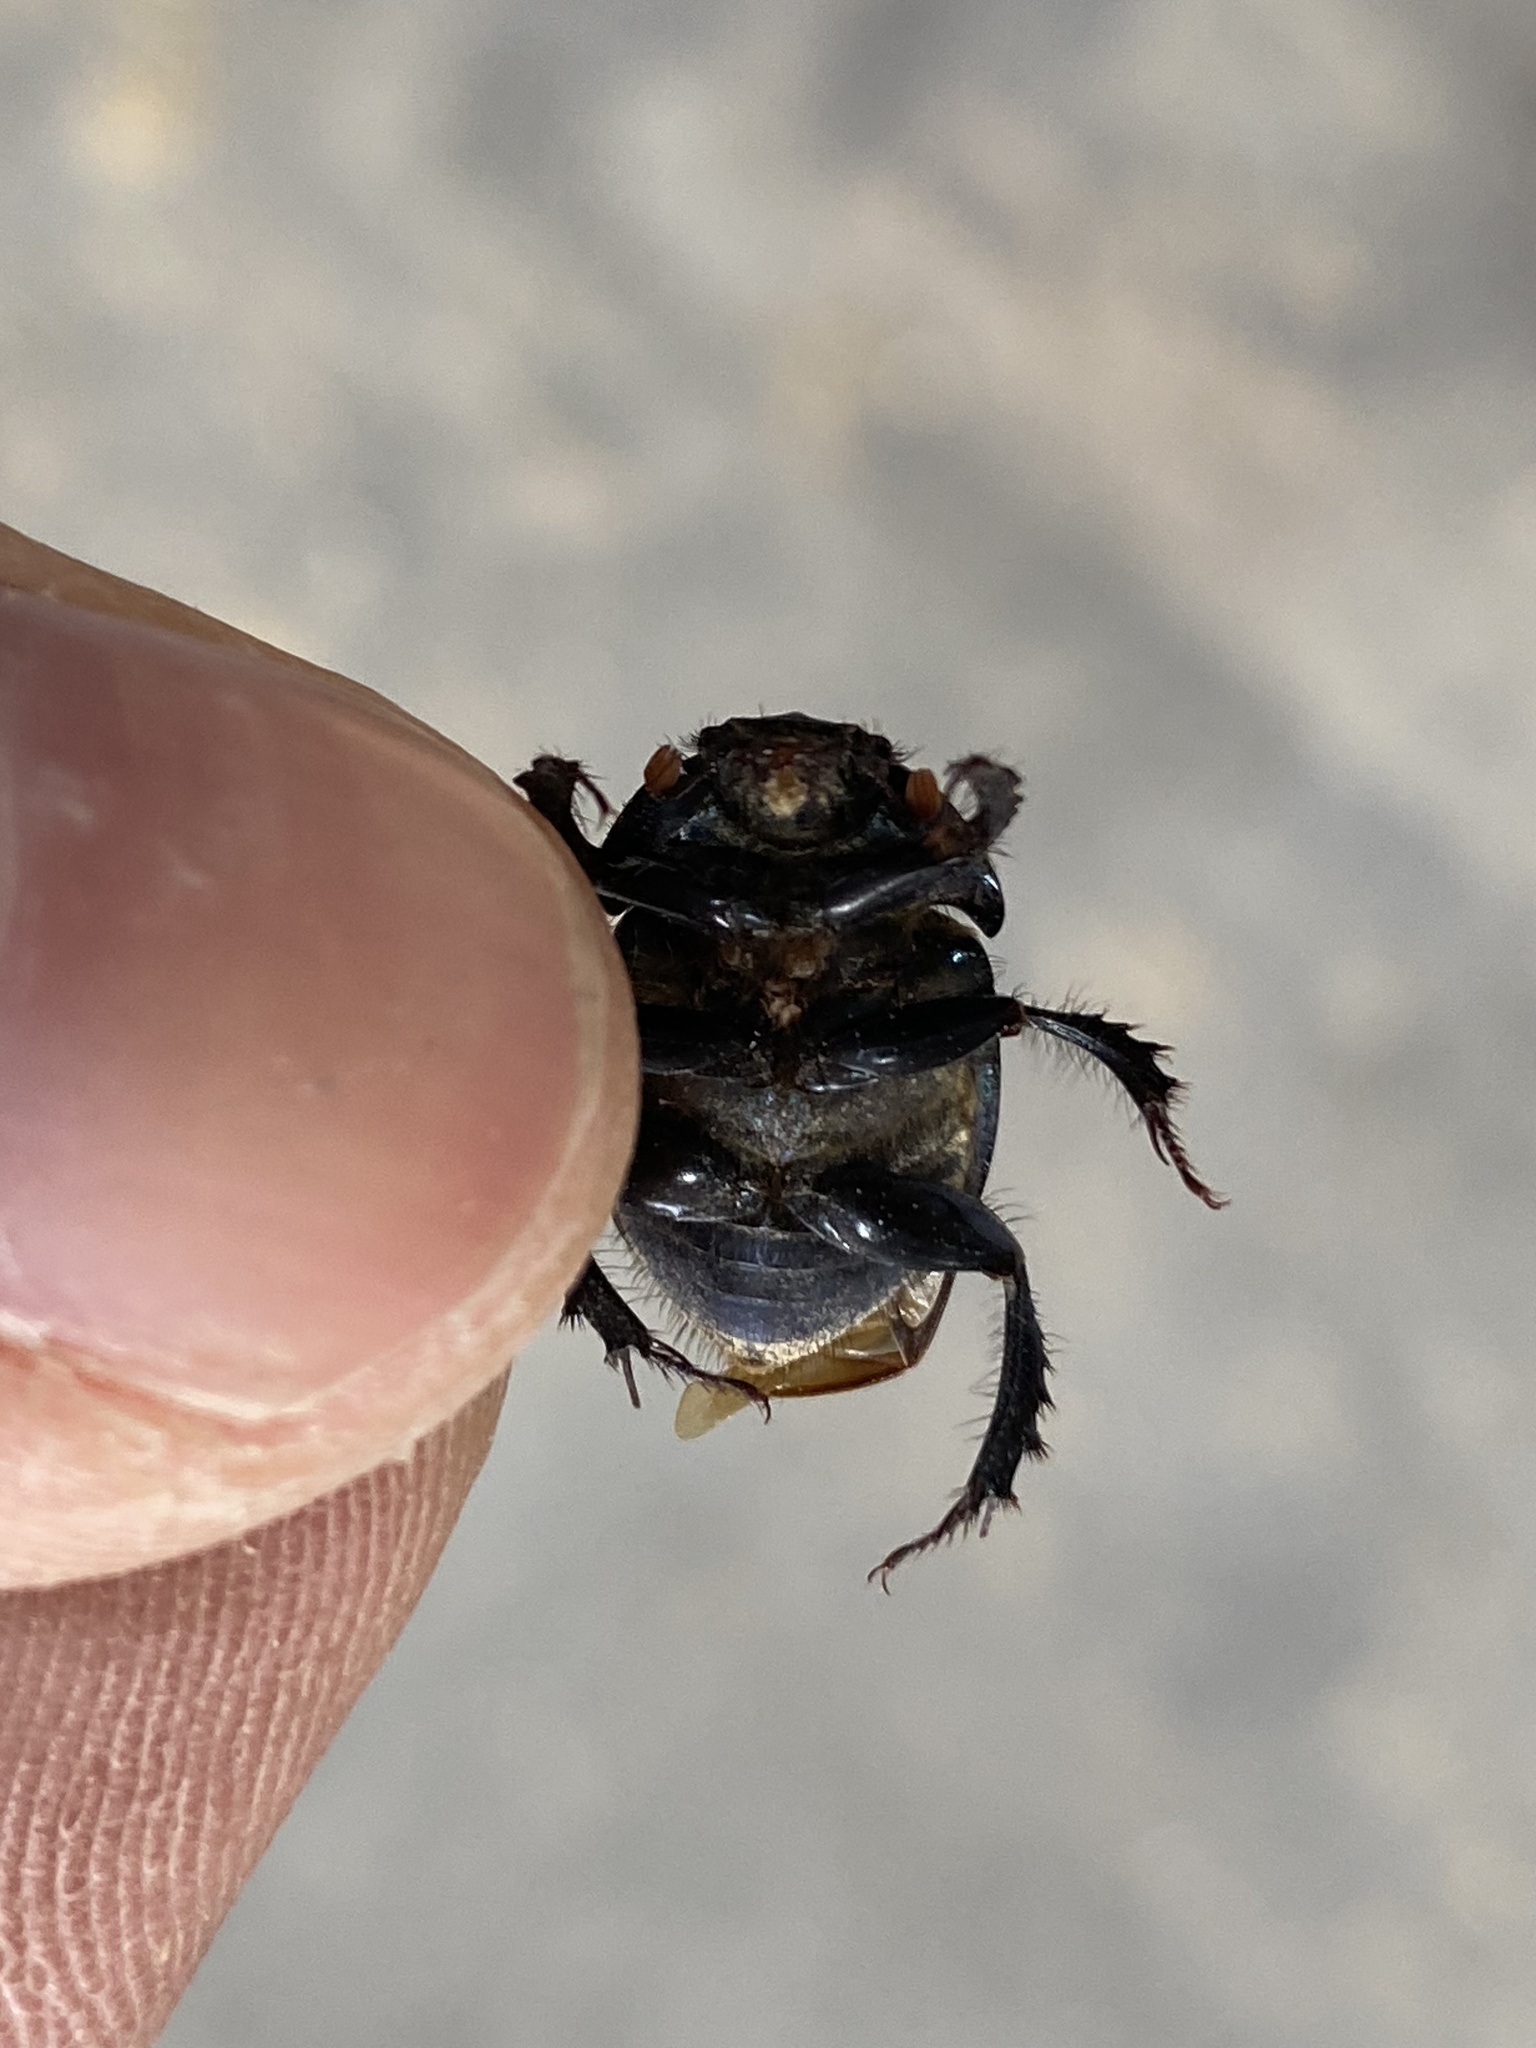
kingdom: Animalia
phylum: Arthropoda
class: Insecta
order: Coleoptera
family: Geotrupidae
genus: Cnemotrupes
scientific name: Cnemotrupes semiopacus
